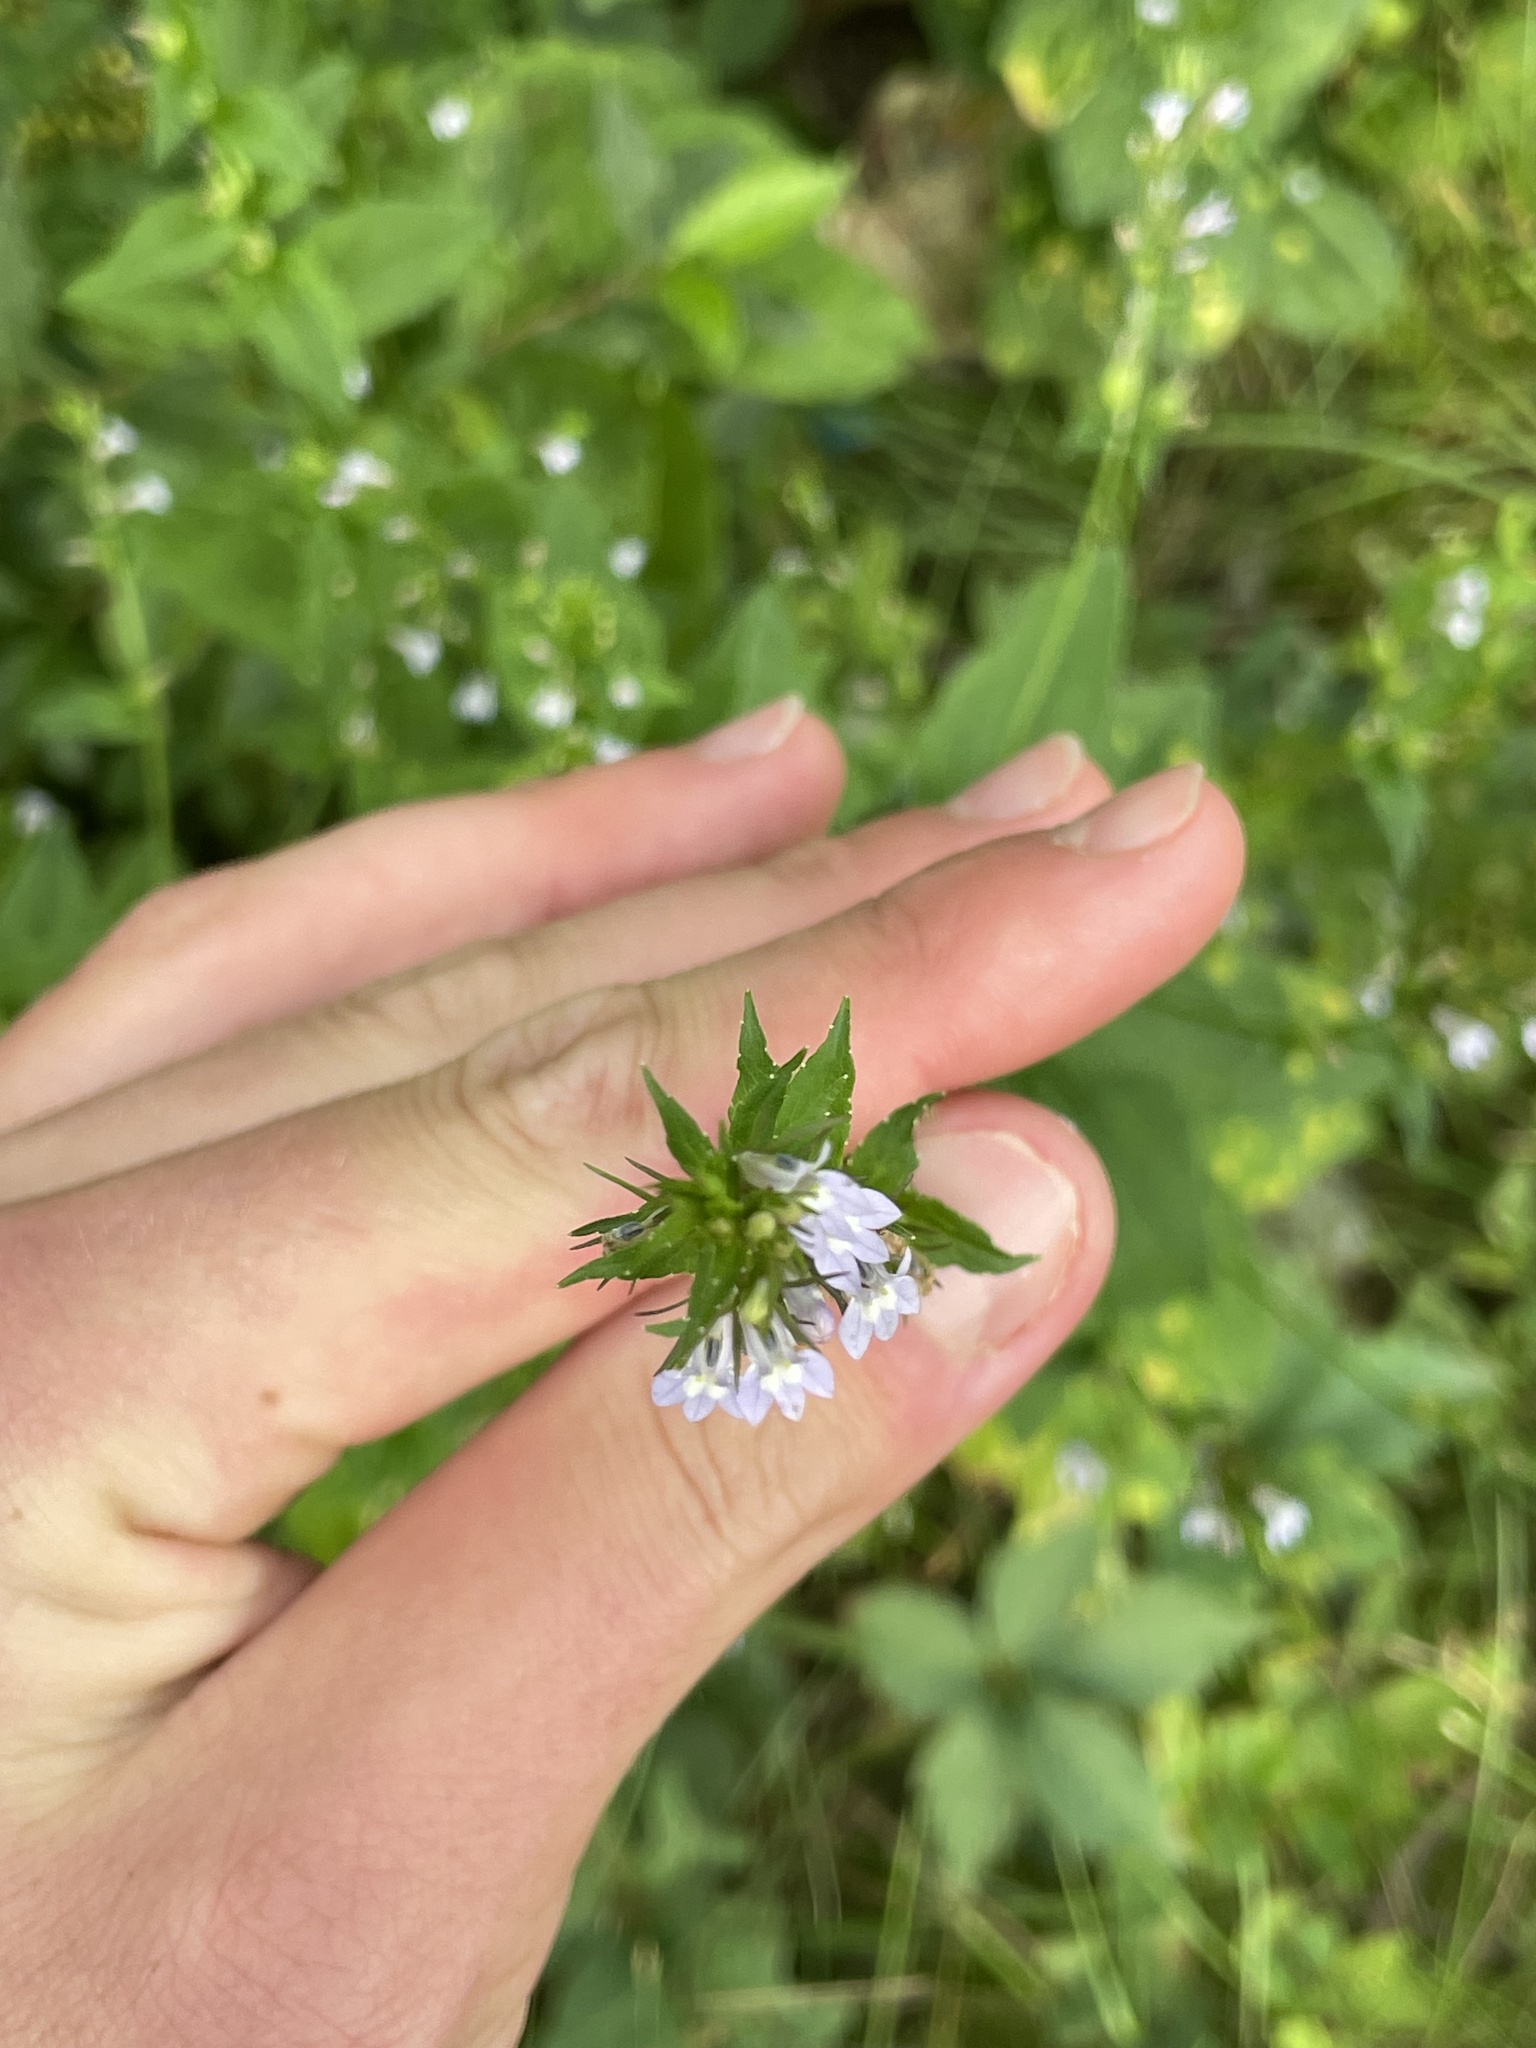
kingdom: Plantae
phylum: Tracheophyta
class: Magnoliopsida
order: Asterales
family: Campanulaceae
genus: Lobelia
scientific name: Lobelia inflata
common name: Indian tobacco
